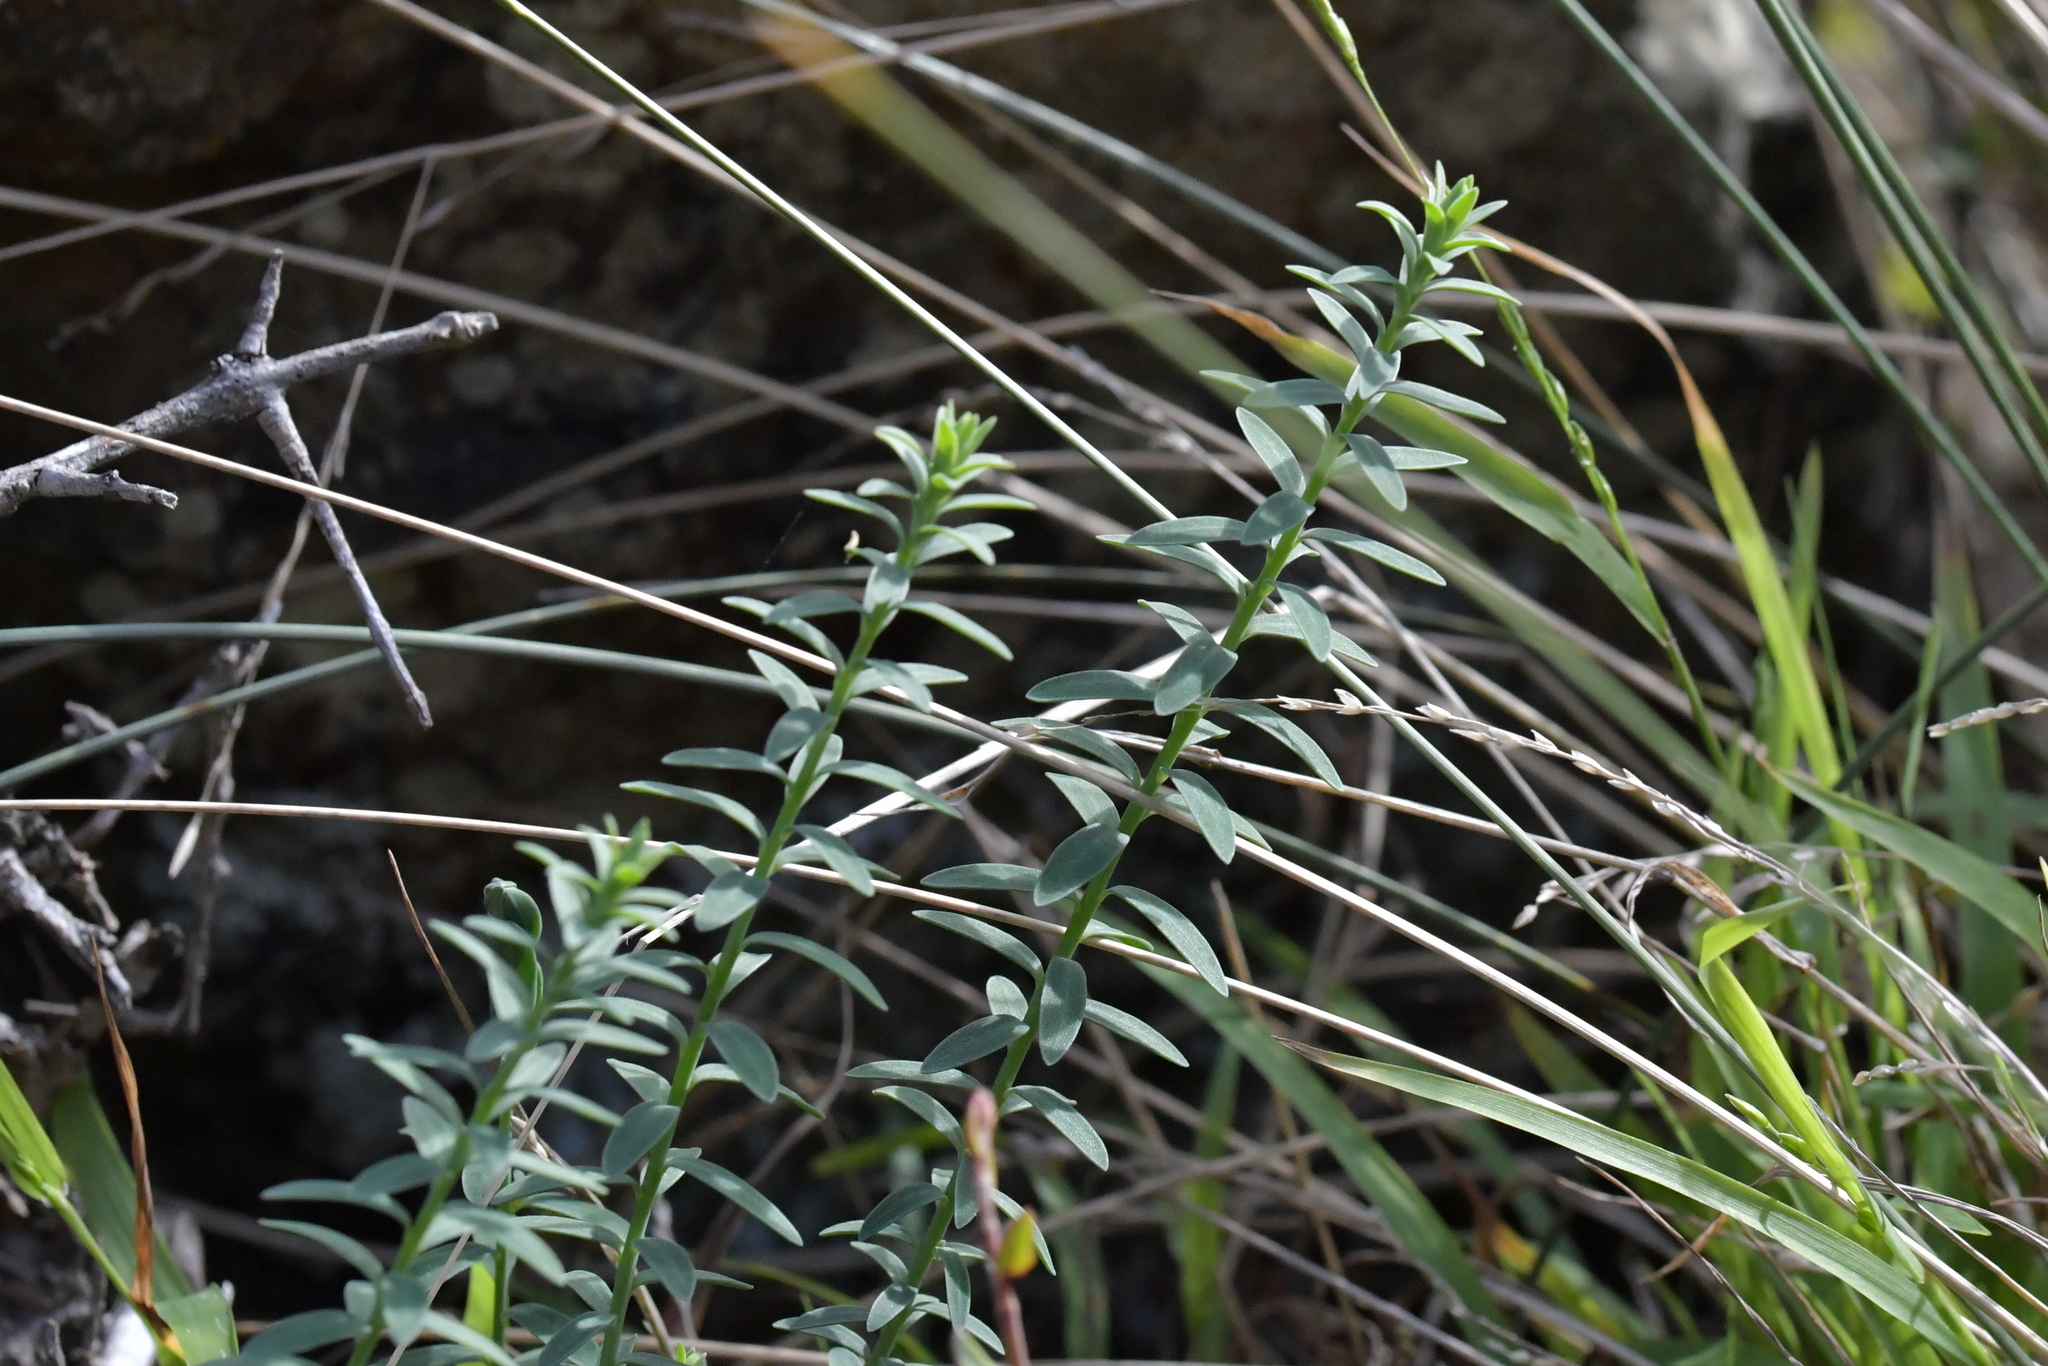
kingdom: Plantae
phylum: Tracheophyta
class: Magnoliopsida
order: Malpighiales
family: Linaceae
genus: Linum
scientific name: Linum monogynum
